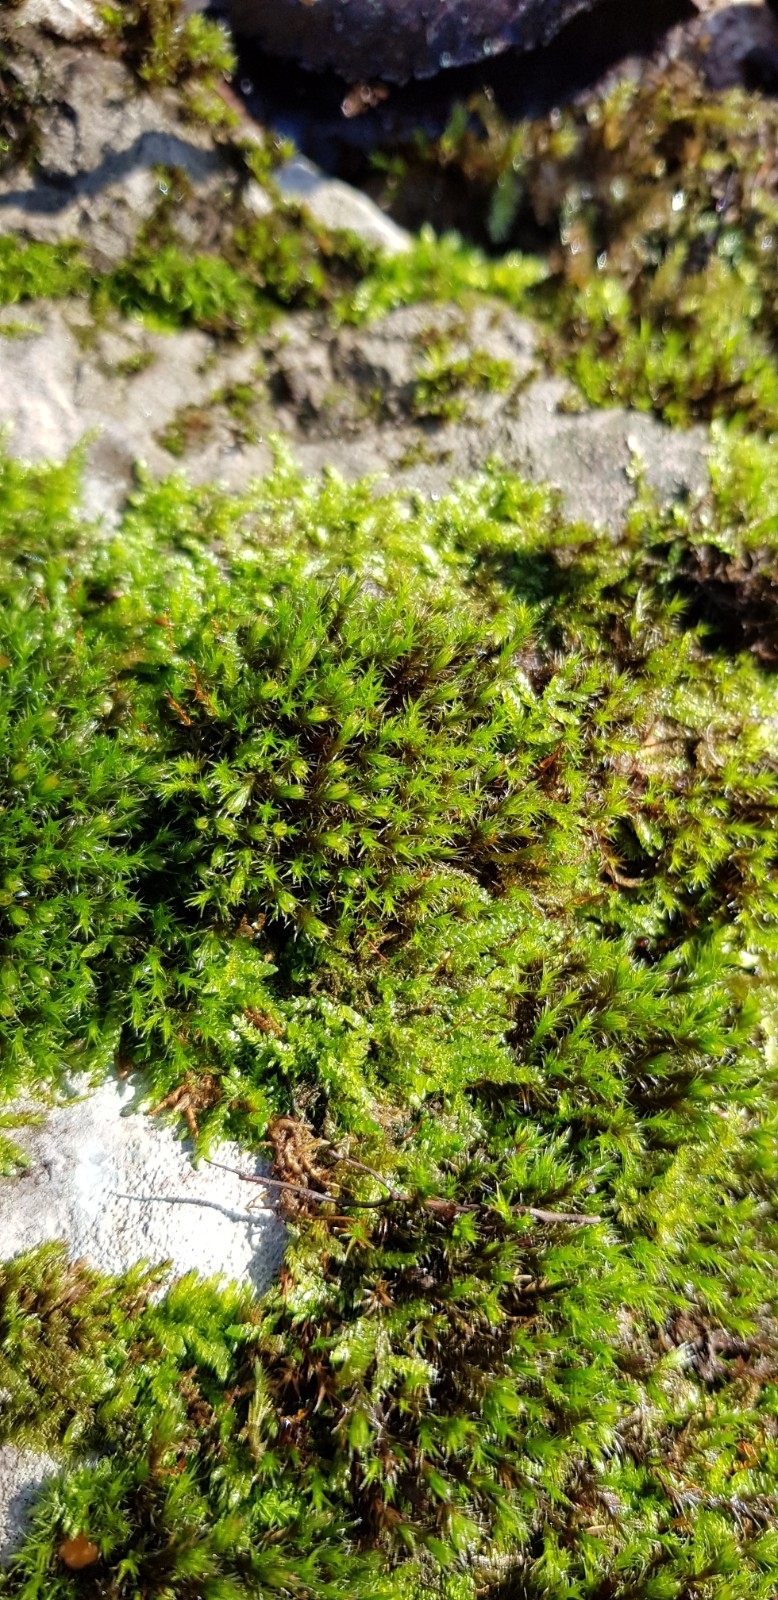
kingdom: Plantae
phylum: Bryophyta
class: Bryopsida
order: Grimmiales
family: Grimmiaceae
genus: Schistidium
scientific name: Schistidium crassipilum
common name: Thickpoint bloom moss
